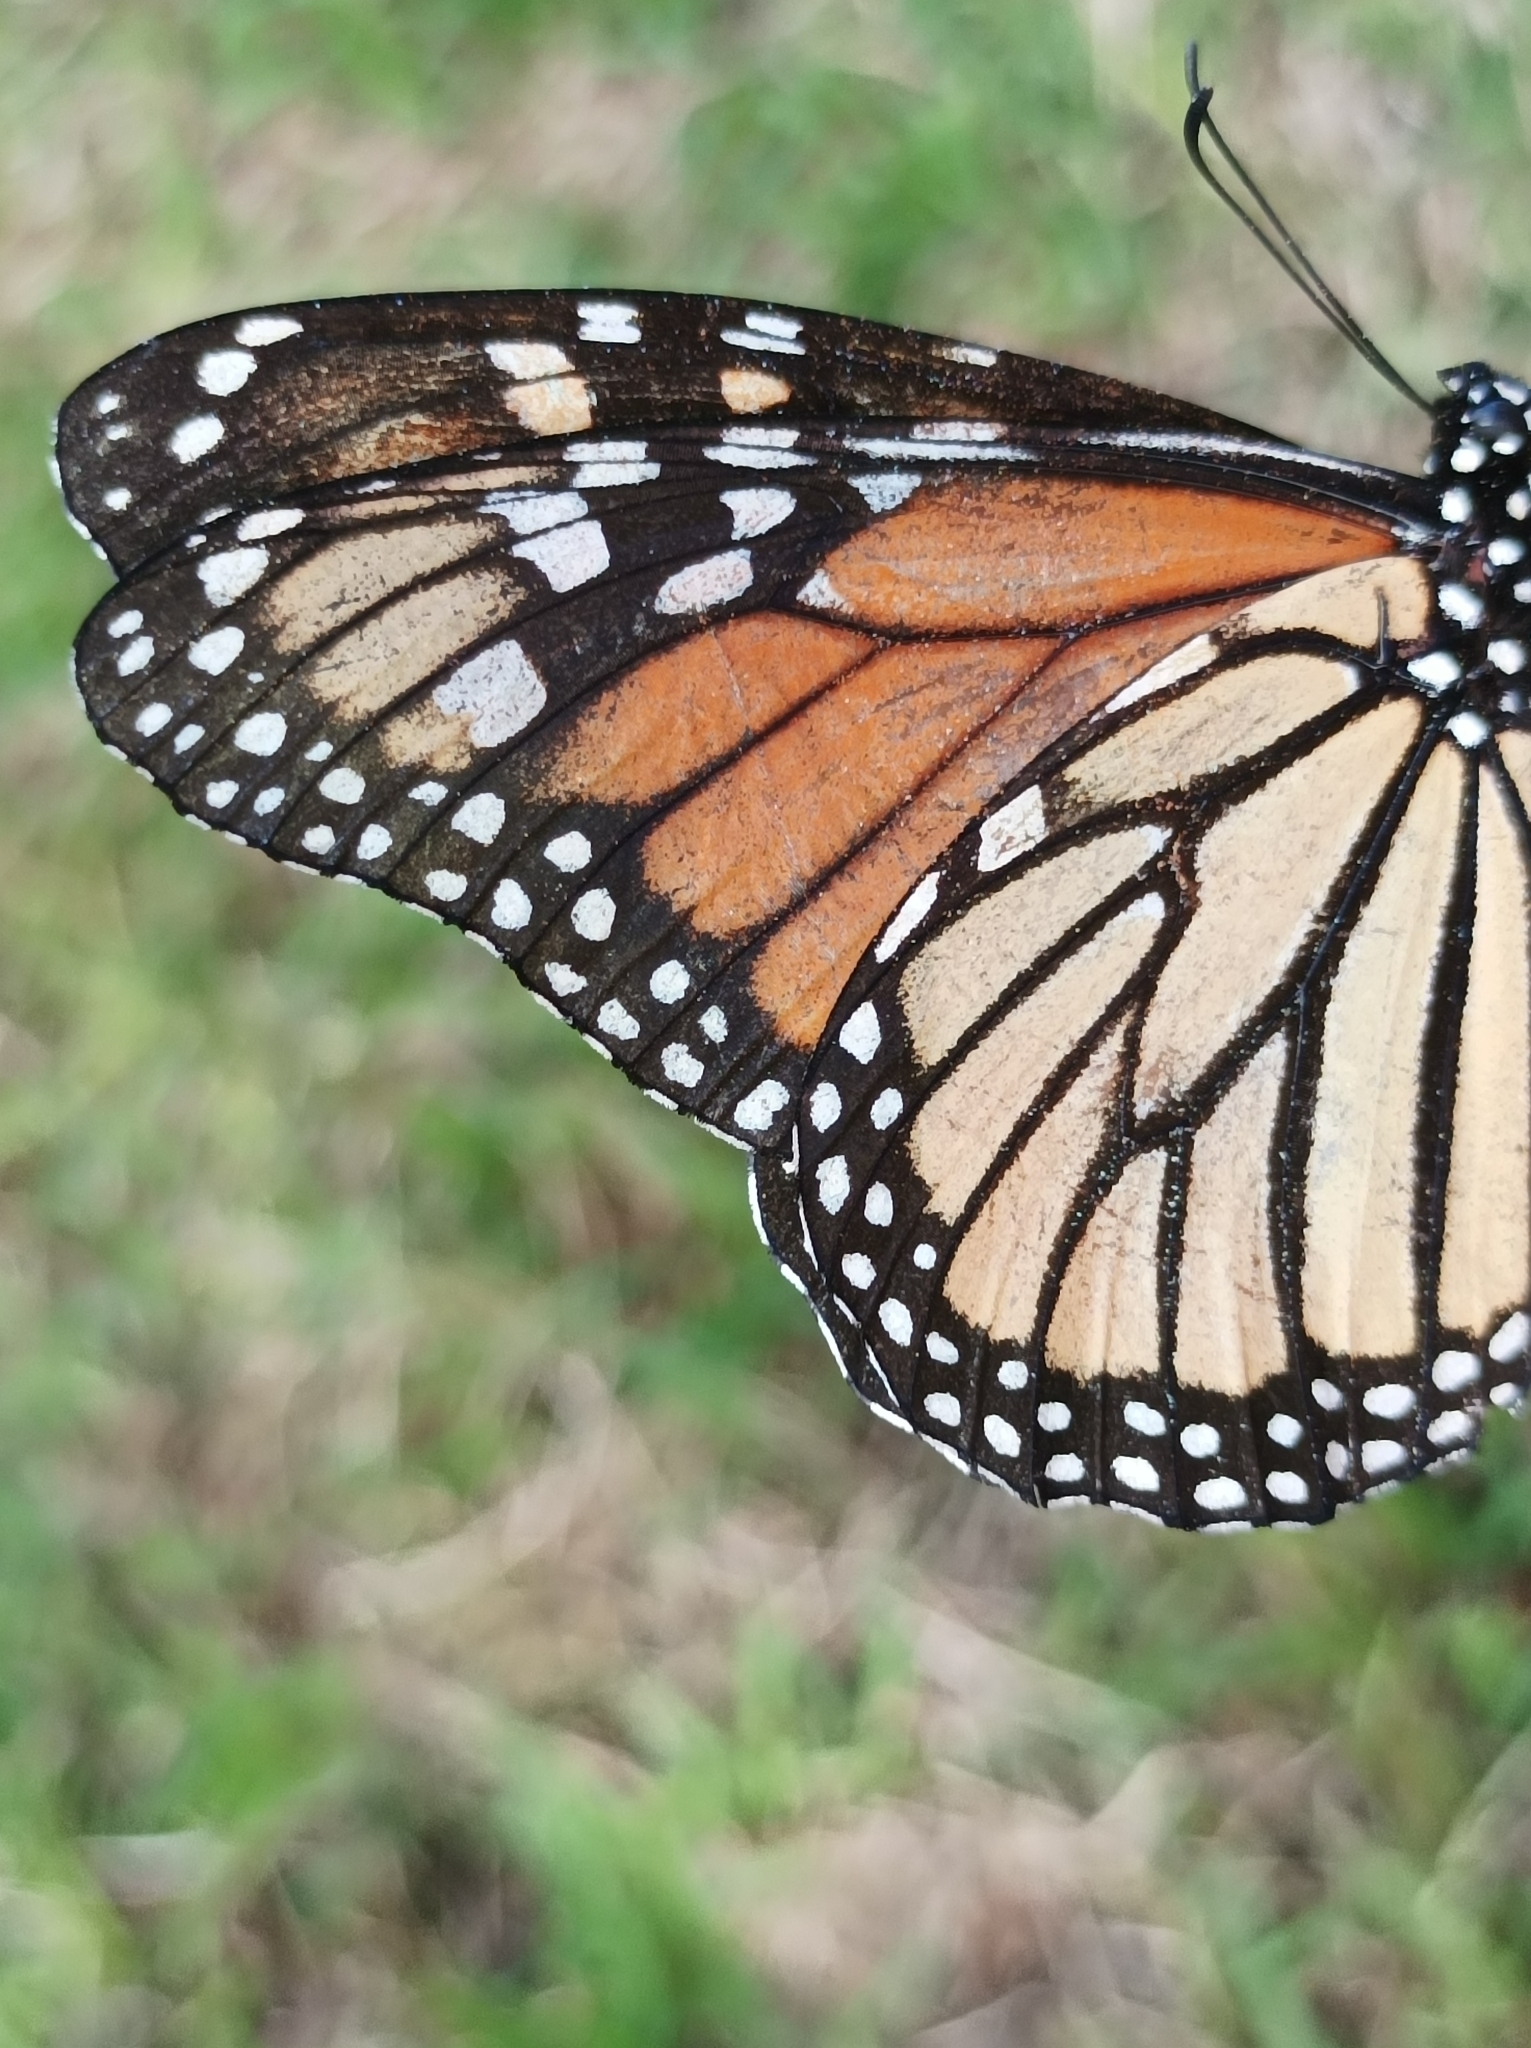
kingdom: Animalia
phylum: Arthropoda
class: Insecta
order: Lepidoptera
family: Nymphalidae
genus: Danaus
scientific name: Danaus plexippus
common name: Monarch
